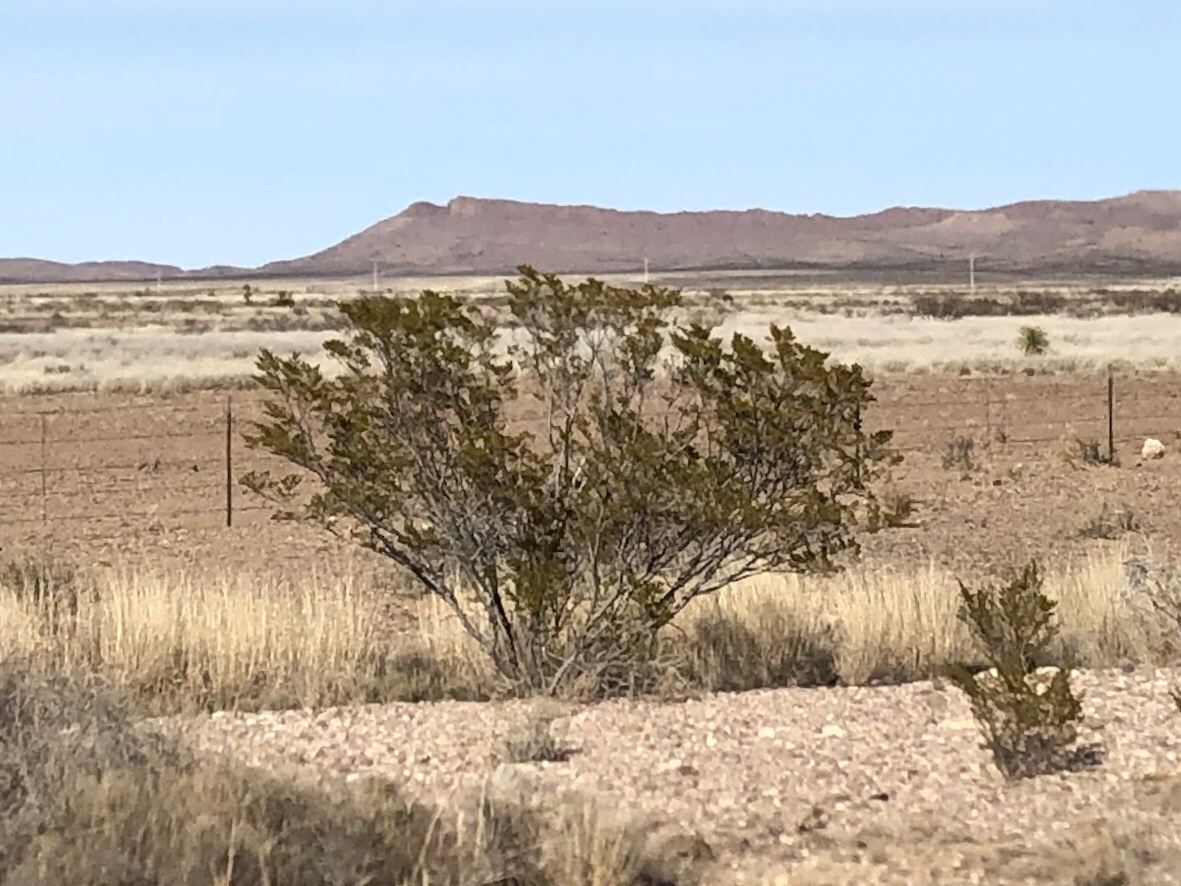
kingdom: Plantae
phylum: Tracheophyta
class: Magnoliopsida
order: Zygophyllales
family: Zygophyllaceae
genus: Larrea
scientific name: Larrea tridentata
